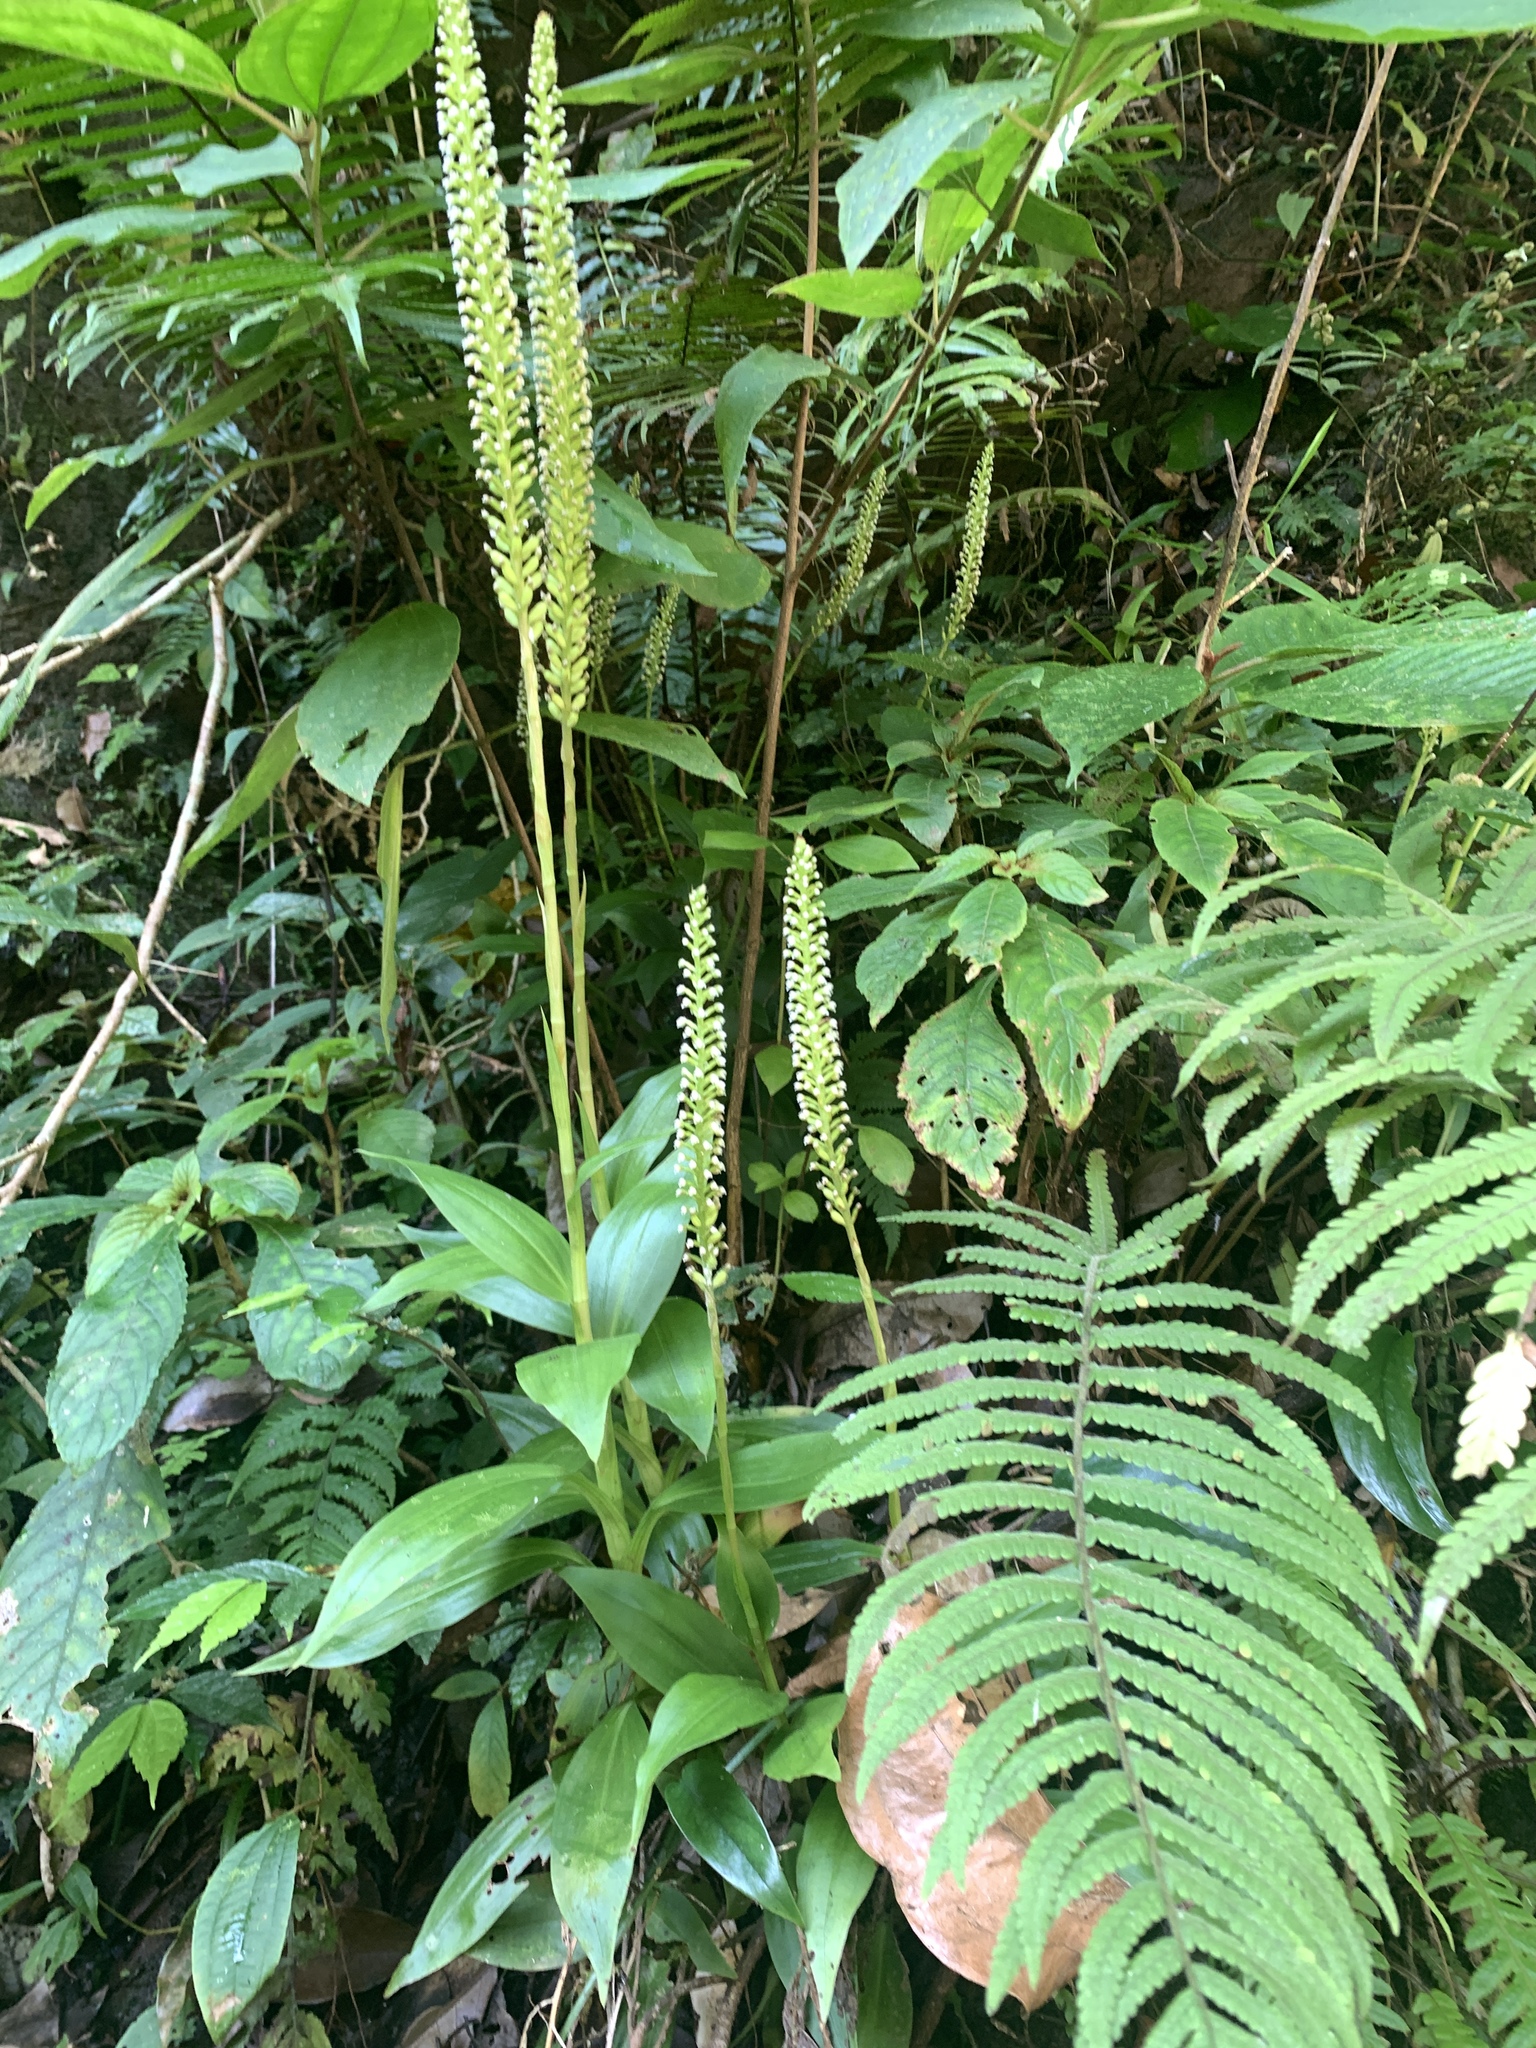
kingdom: Plantae
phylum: Tracheophyta
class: Liliopsida
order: Asparagales
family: Orchidaceae
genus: Goodyera
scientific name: Goodyera procera
